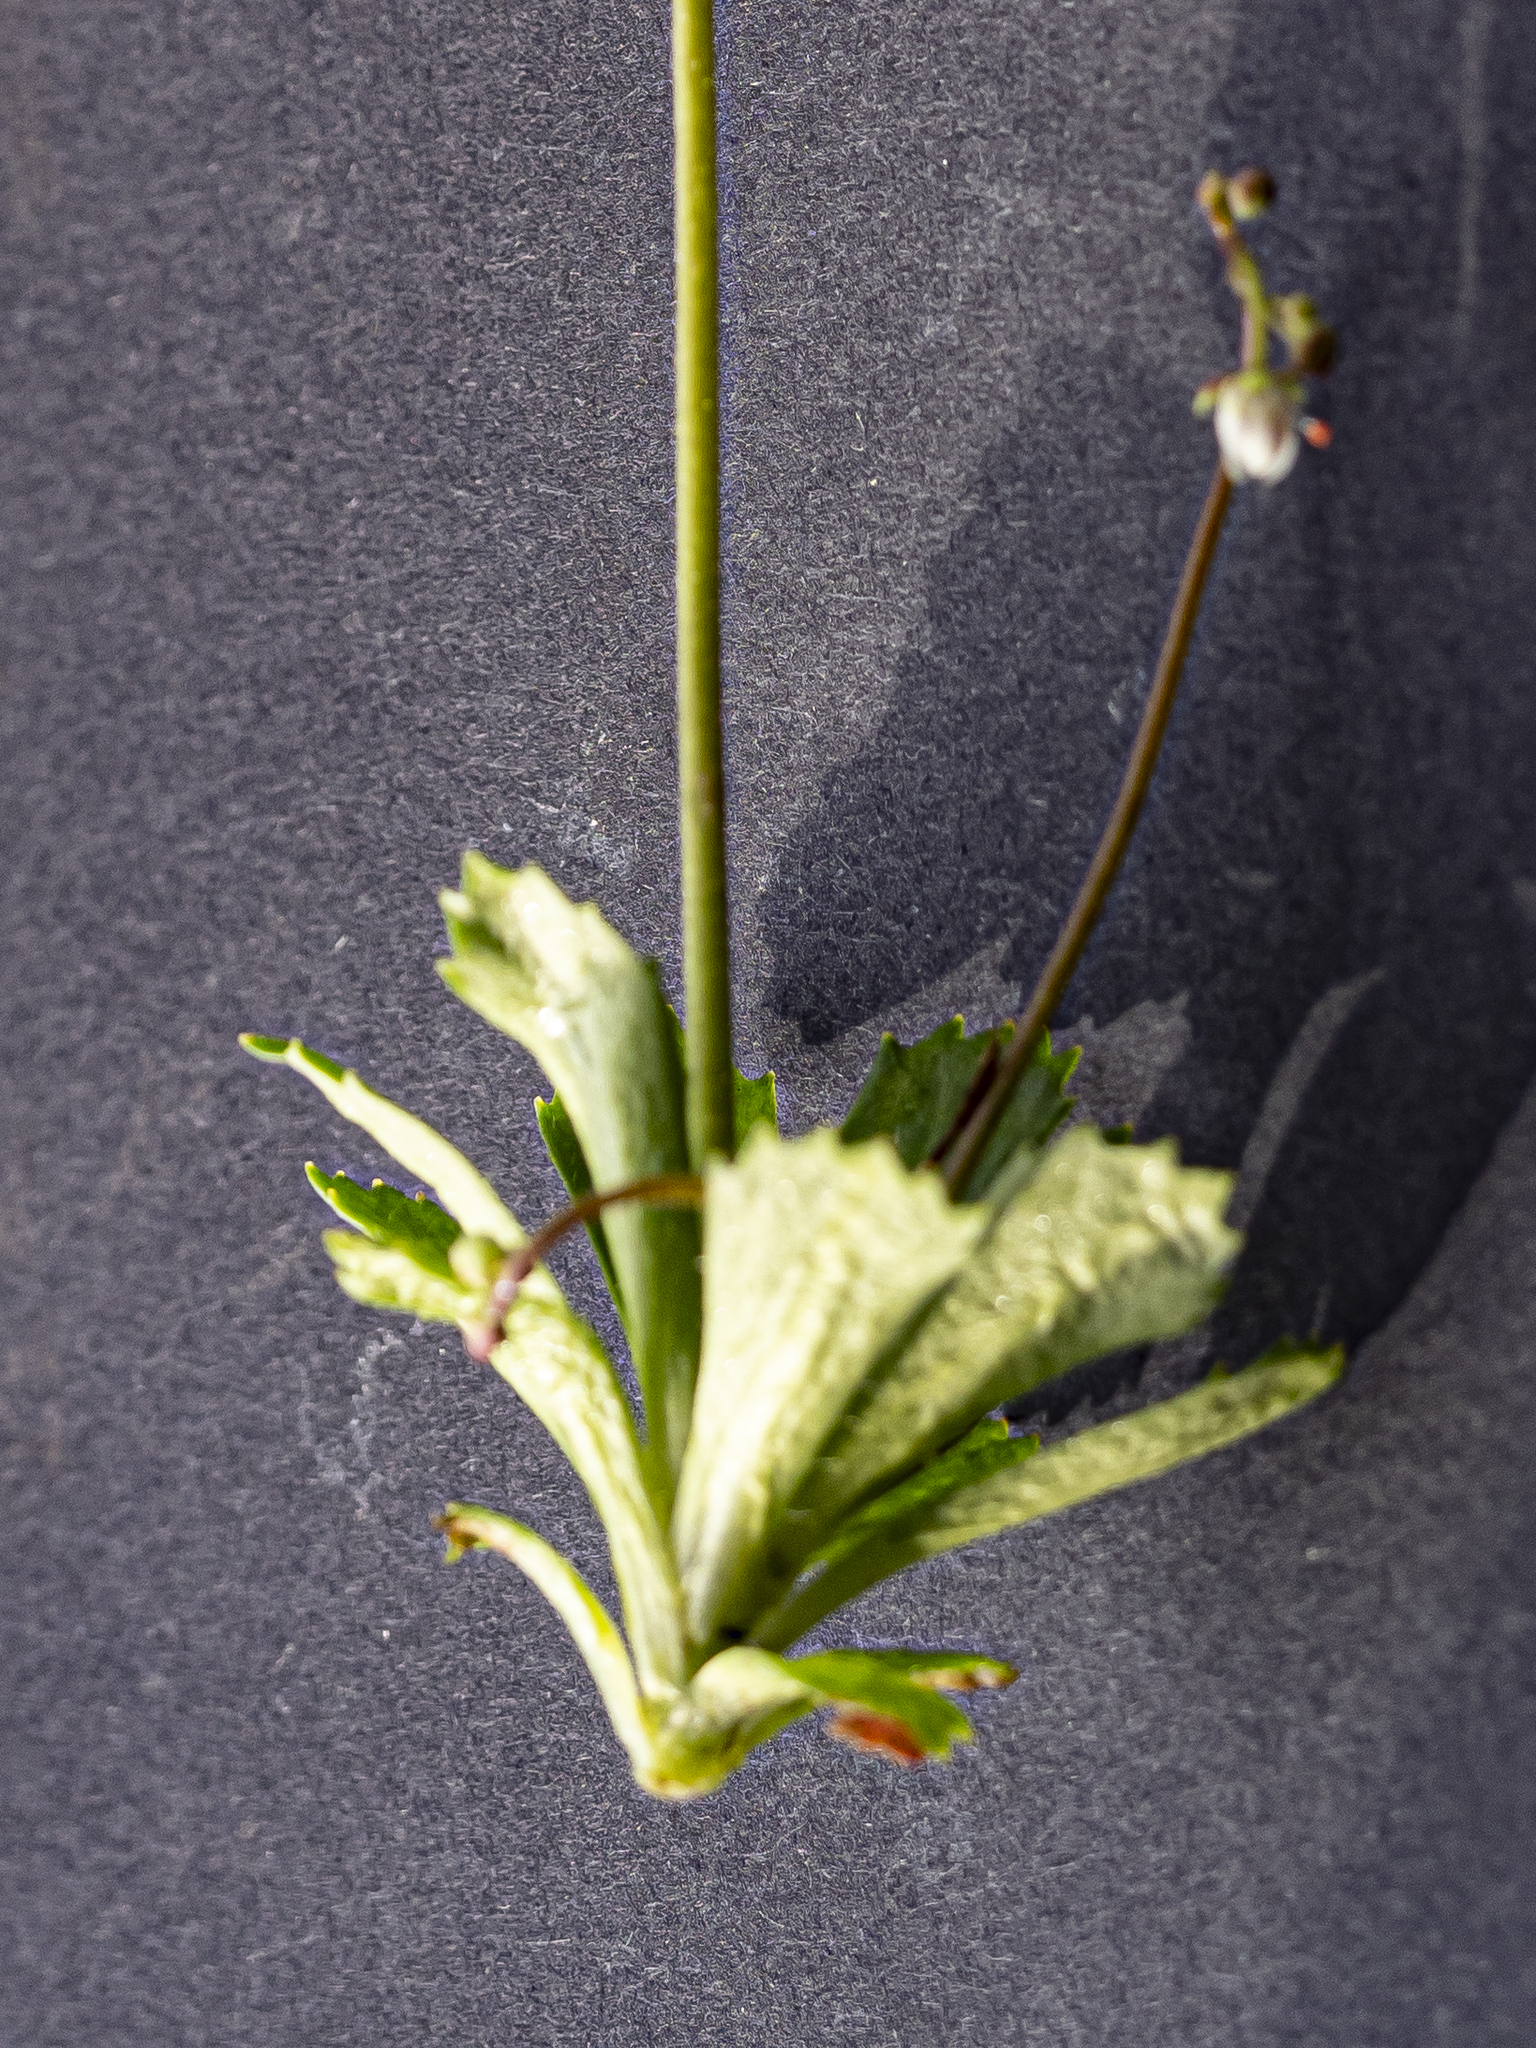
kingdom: Plantae
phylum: Tracheophyta
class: Magnoliopsida
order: Saxifragales
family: Saxifragaceae
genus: Micranthes
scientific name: Micranthes stellaris
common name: Starry saxifrage
